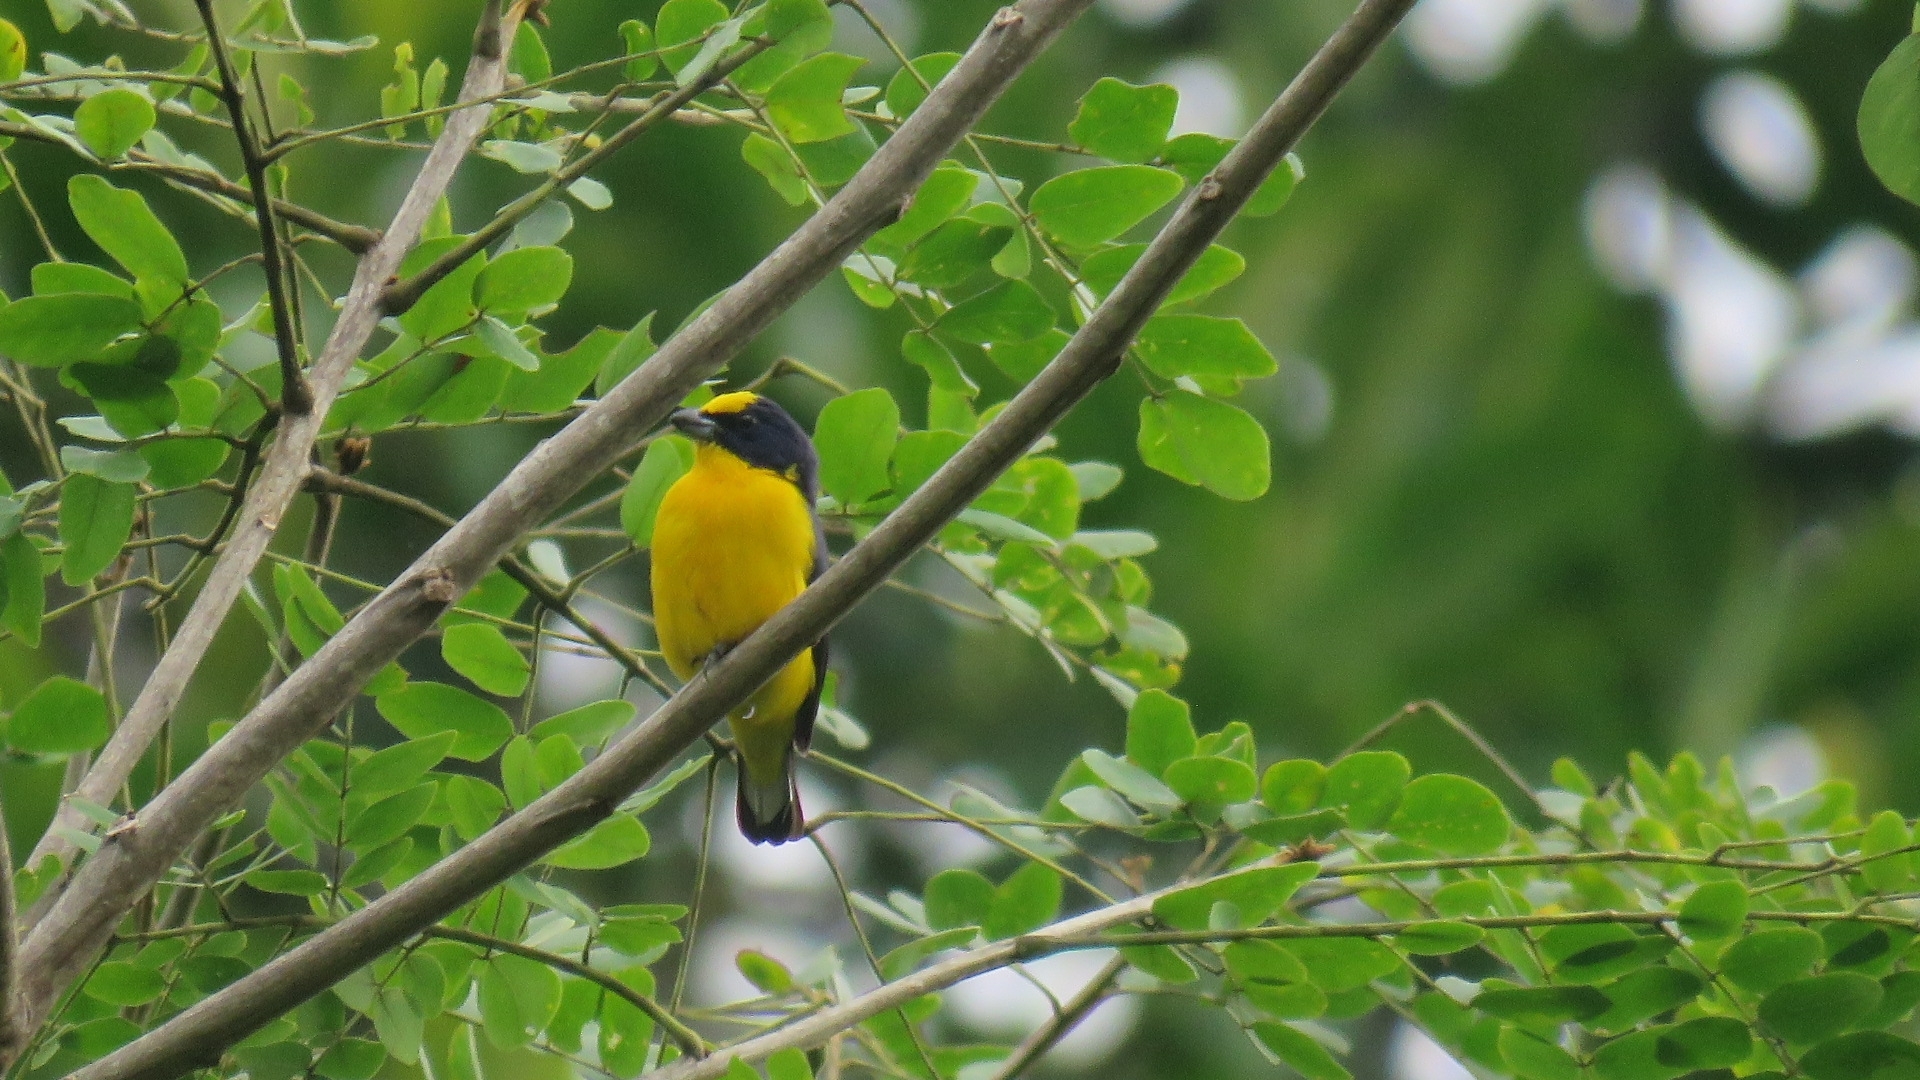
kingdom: Animalia
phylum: Chordata
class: Aves
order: Passeriformes
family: Fringillidae
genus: Euphonia
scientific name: Euphonia laniirostris
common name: Thick-billed euphonia
